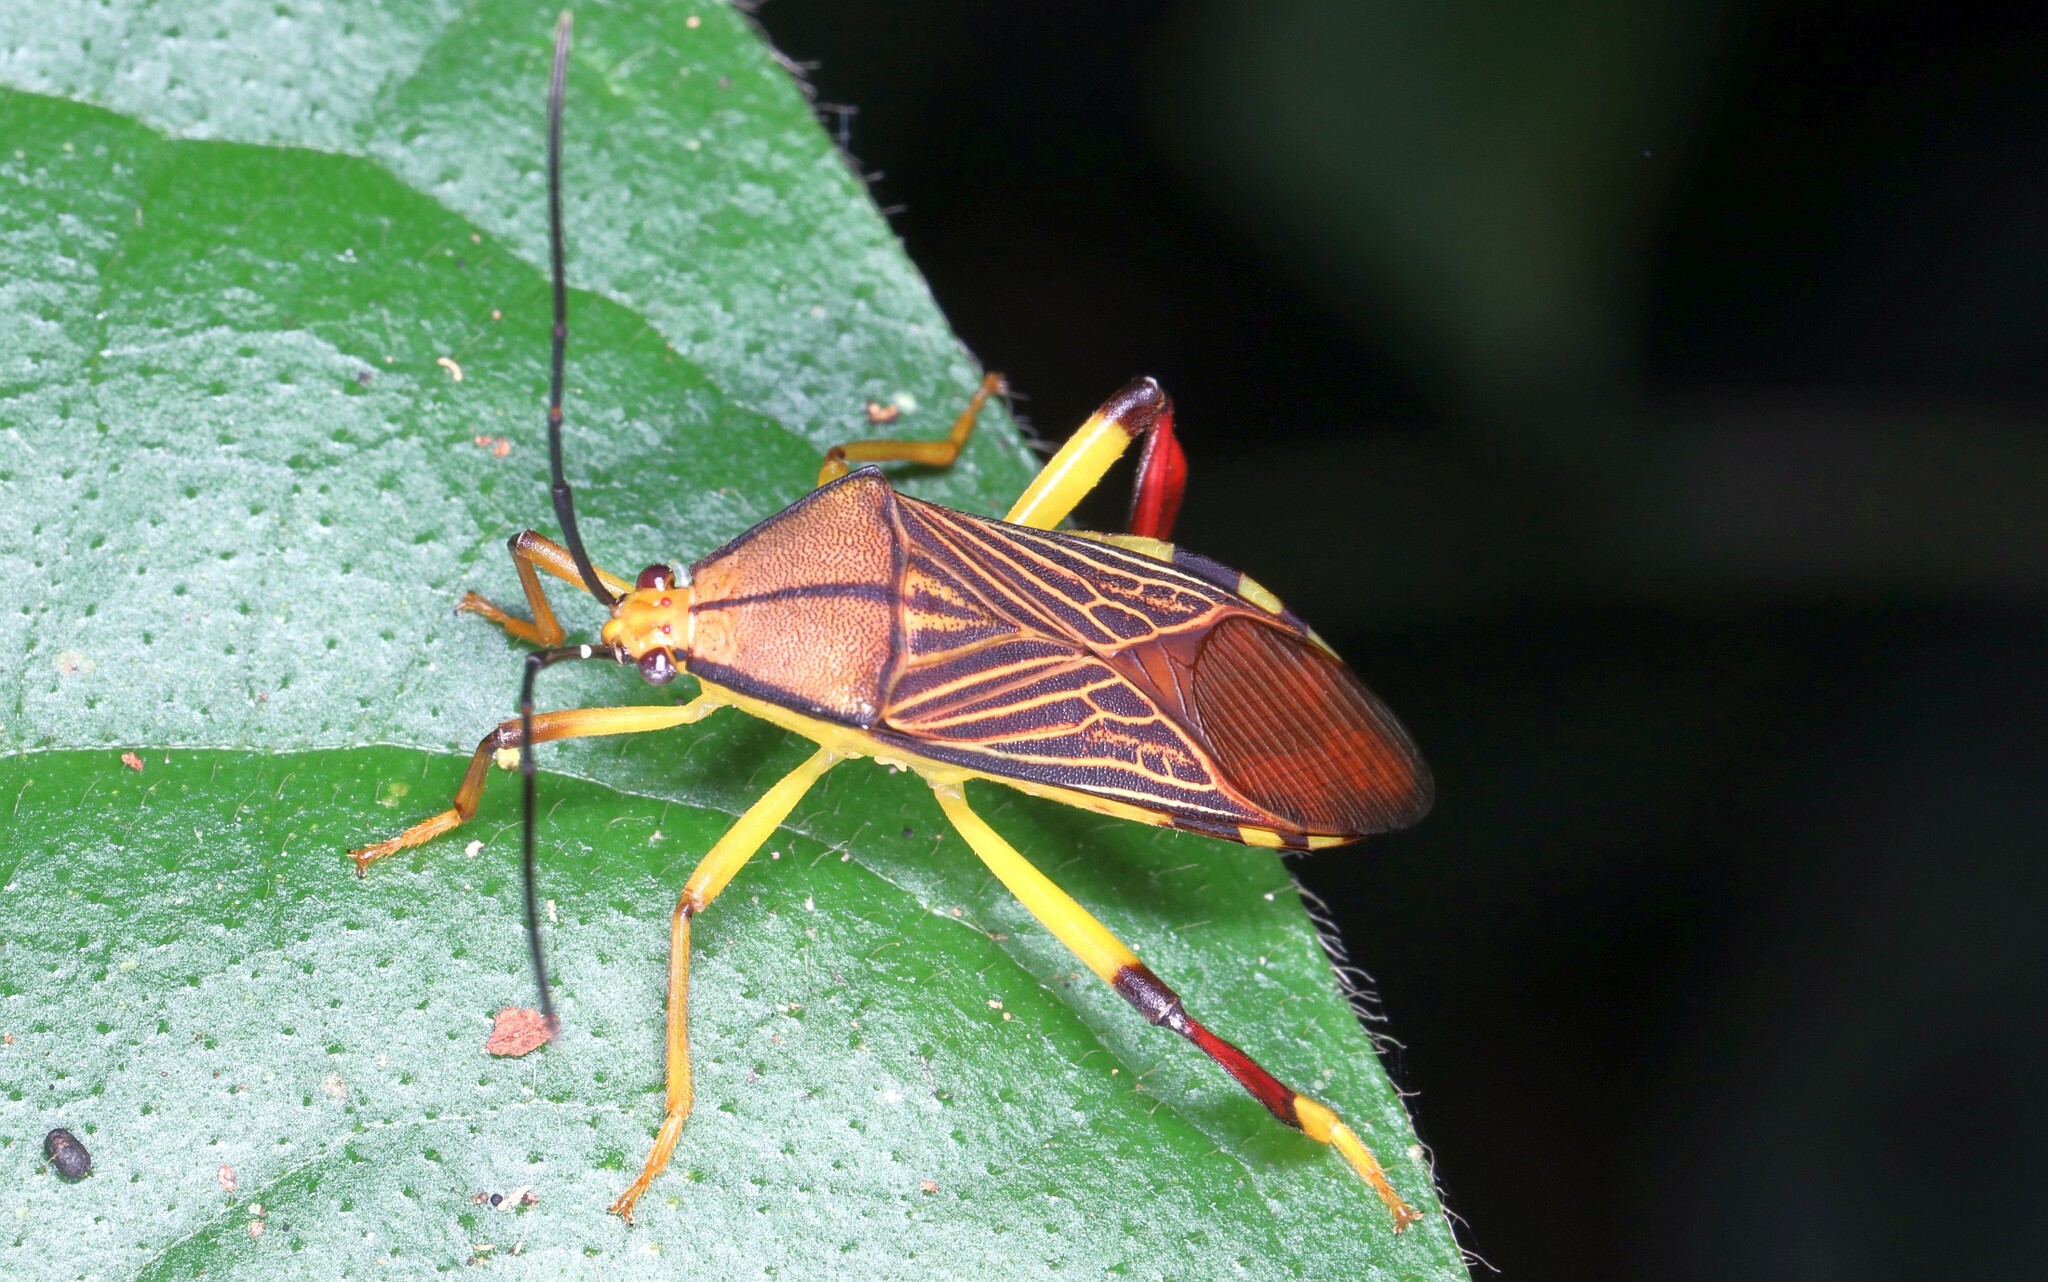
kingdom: Animalia
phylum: Arthropoda
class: Insecta
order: Hemiptera
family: Coreidae
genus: Melucha
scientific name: Melucha lineatella
